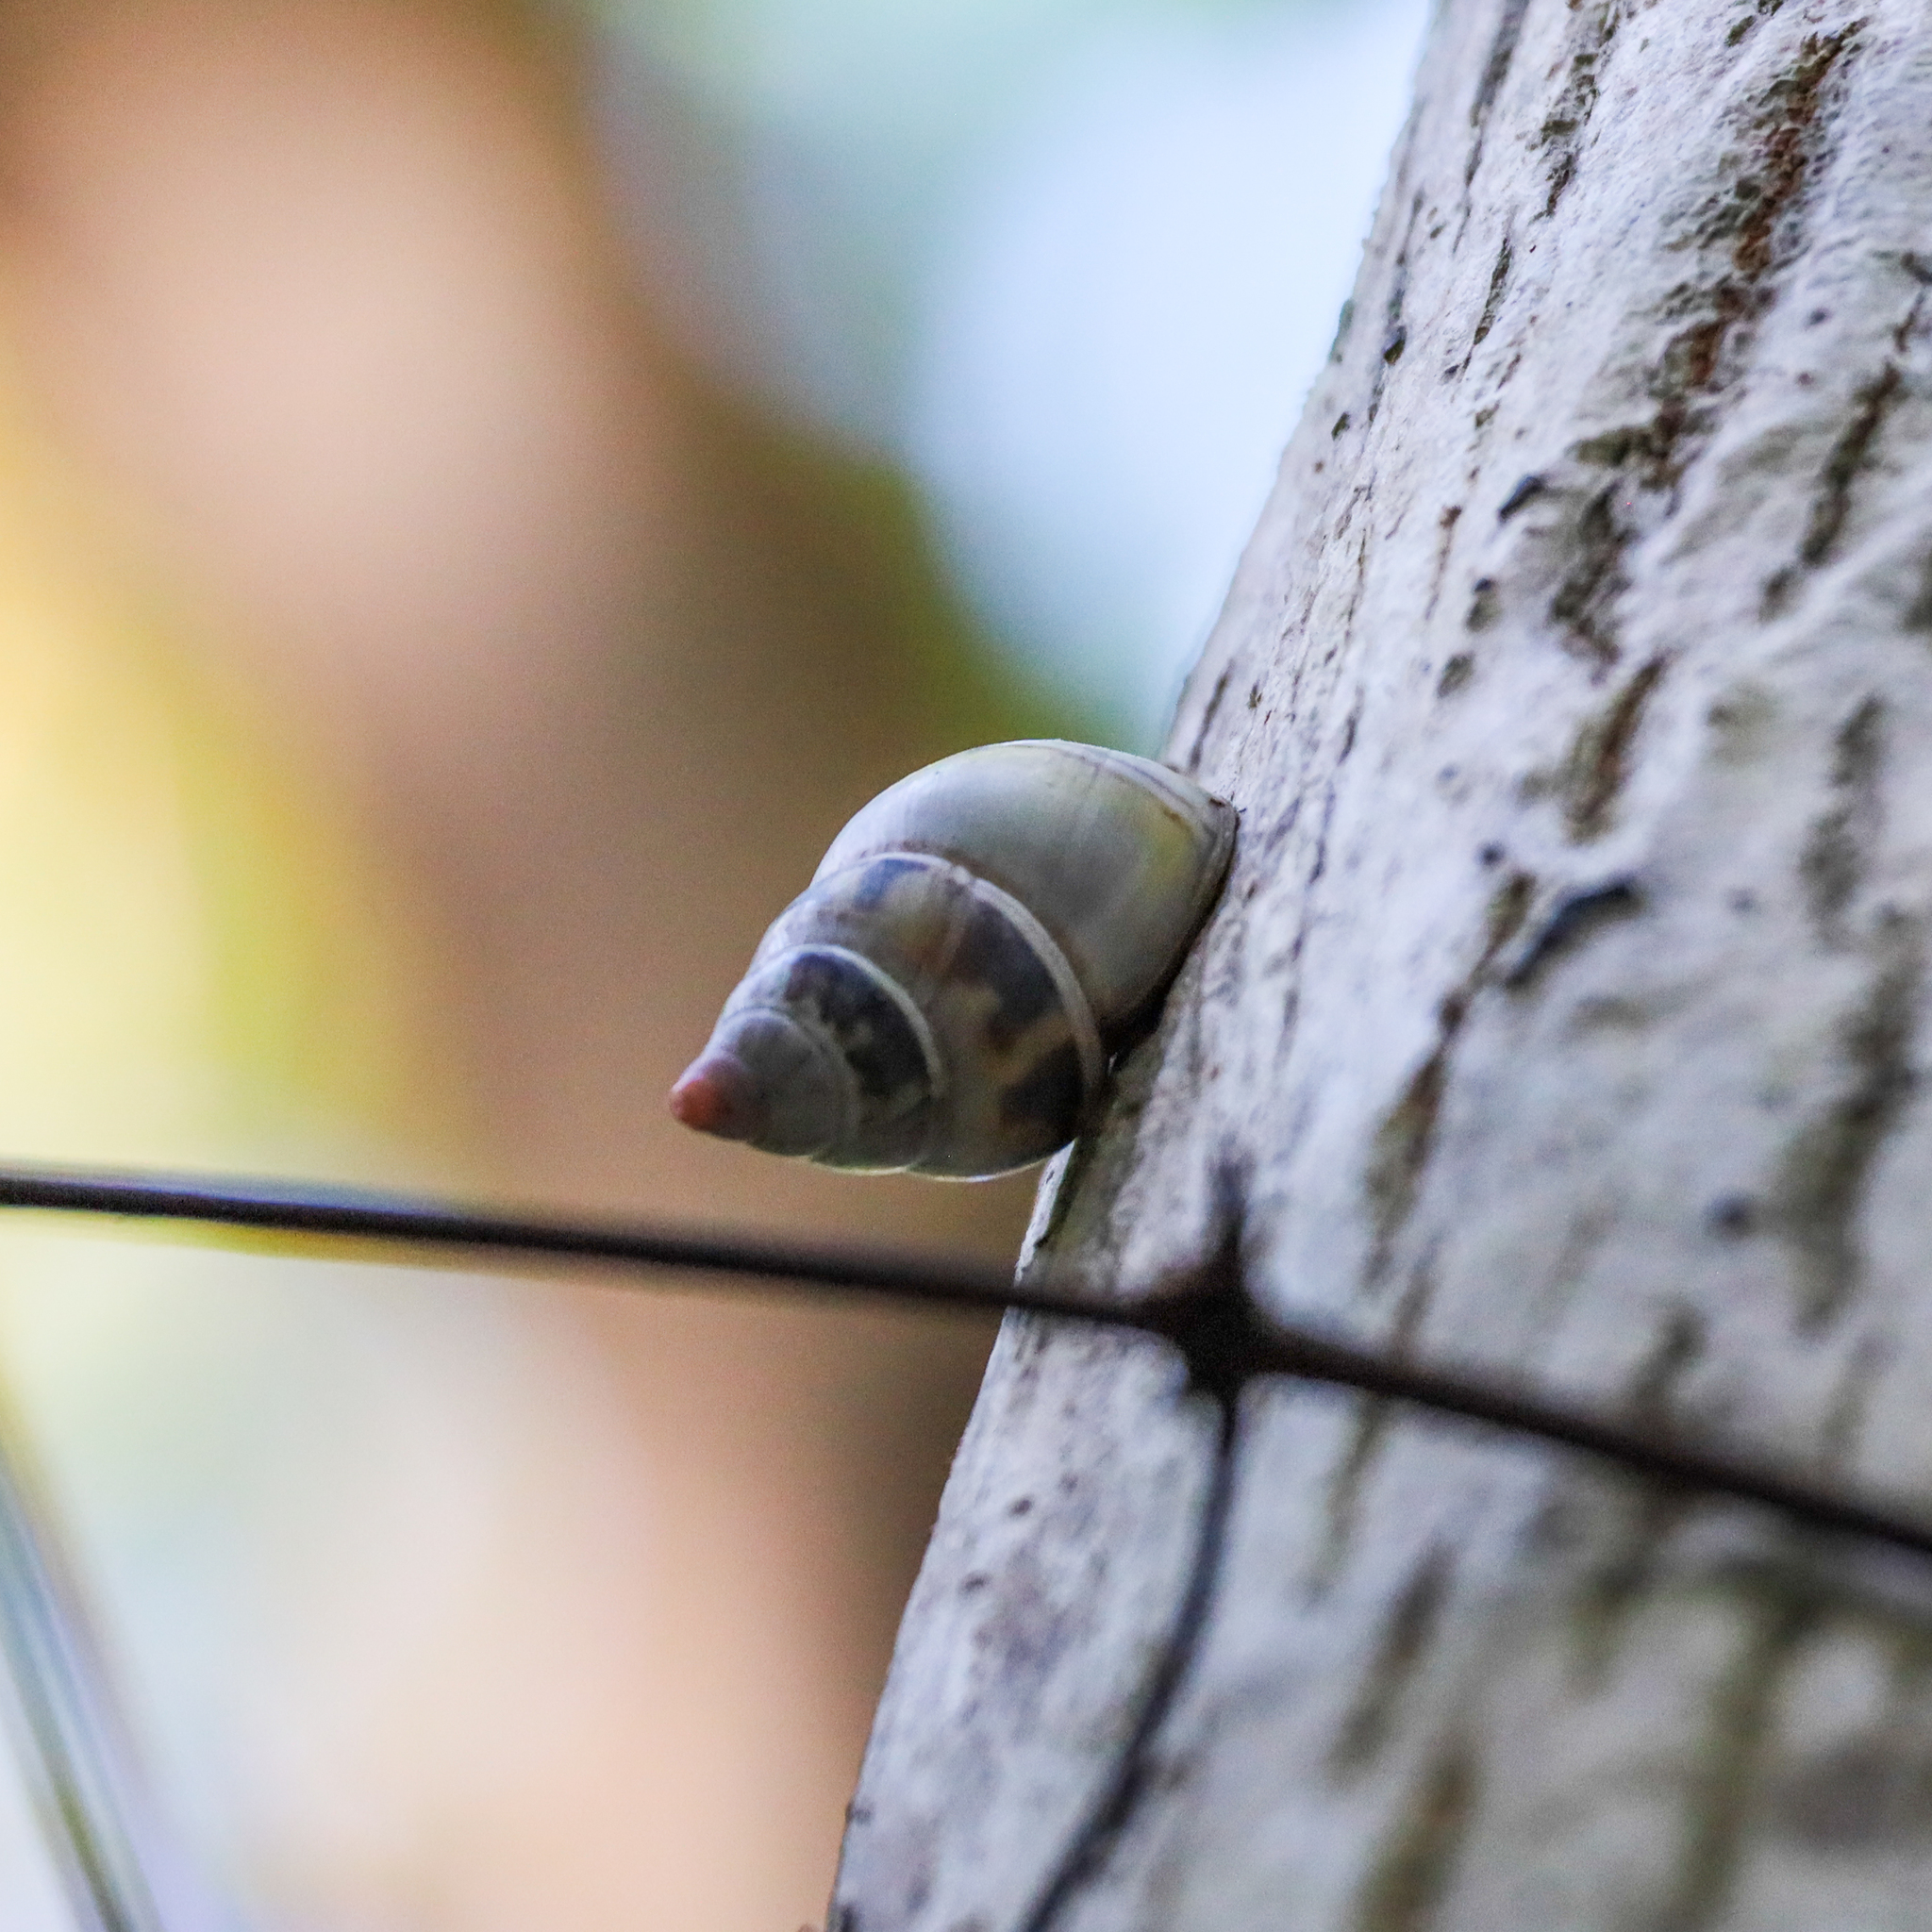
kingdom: Animalia
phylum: Mollusca
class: Gastropoda
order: Stylommatophora
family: Orthalicidae
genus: Liguus
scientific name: Liguus fasciatus
